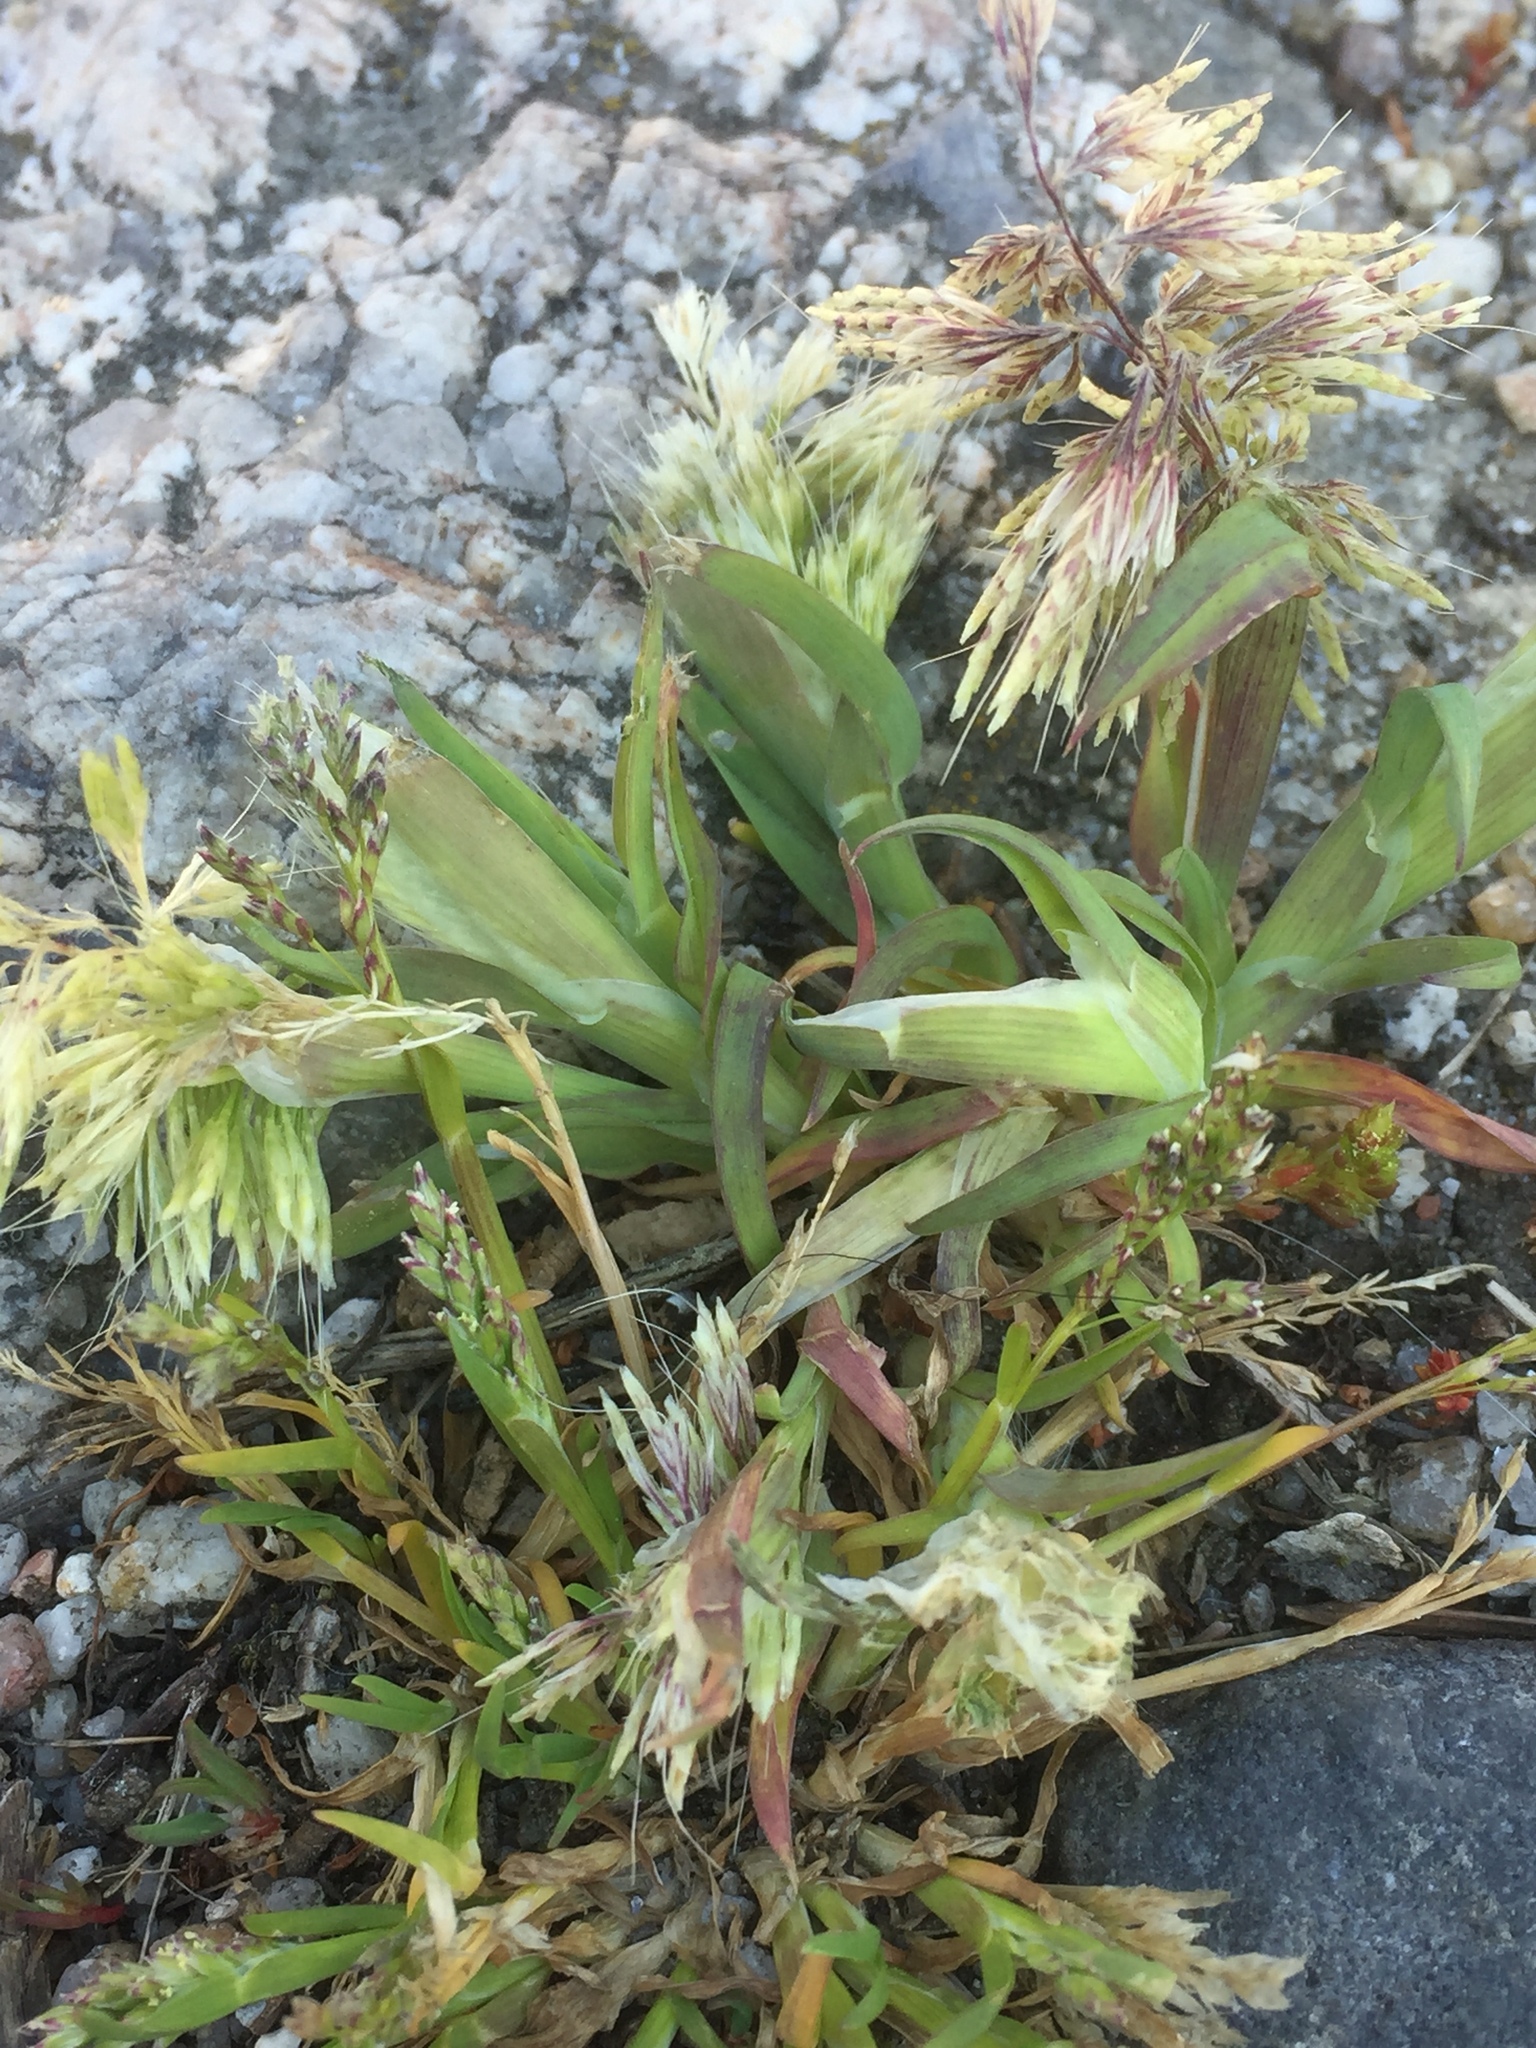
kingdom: Plantae
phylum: Tracheophyta
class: Liliopsida
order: Poales
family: Poaceae
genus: Lamarckia
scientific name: Lamarckia aurea
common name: Golden dog's-tail
